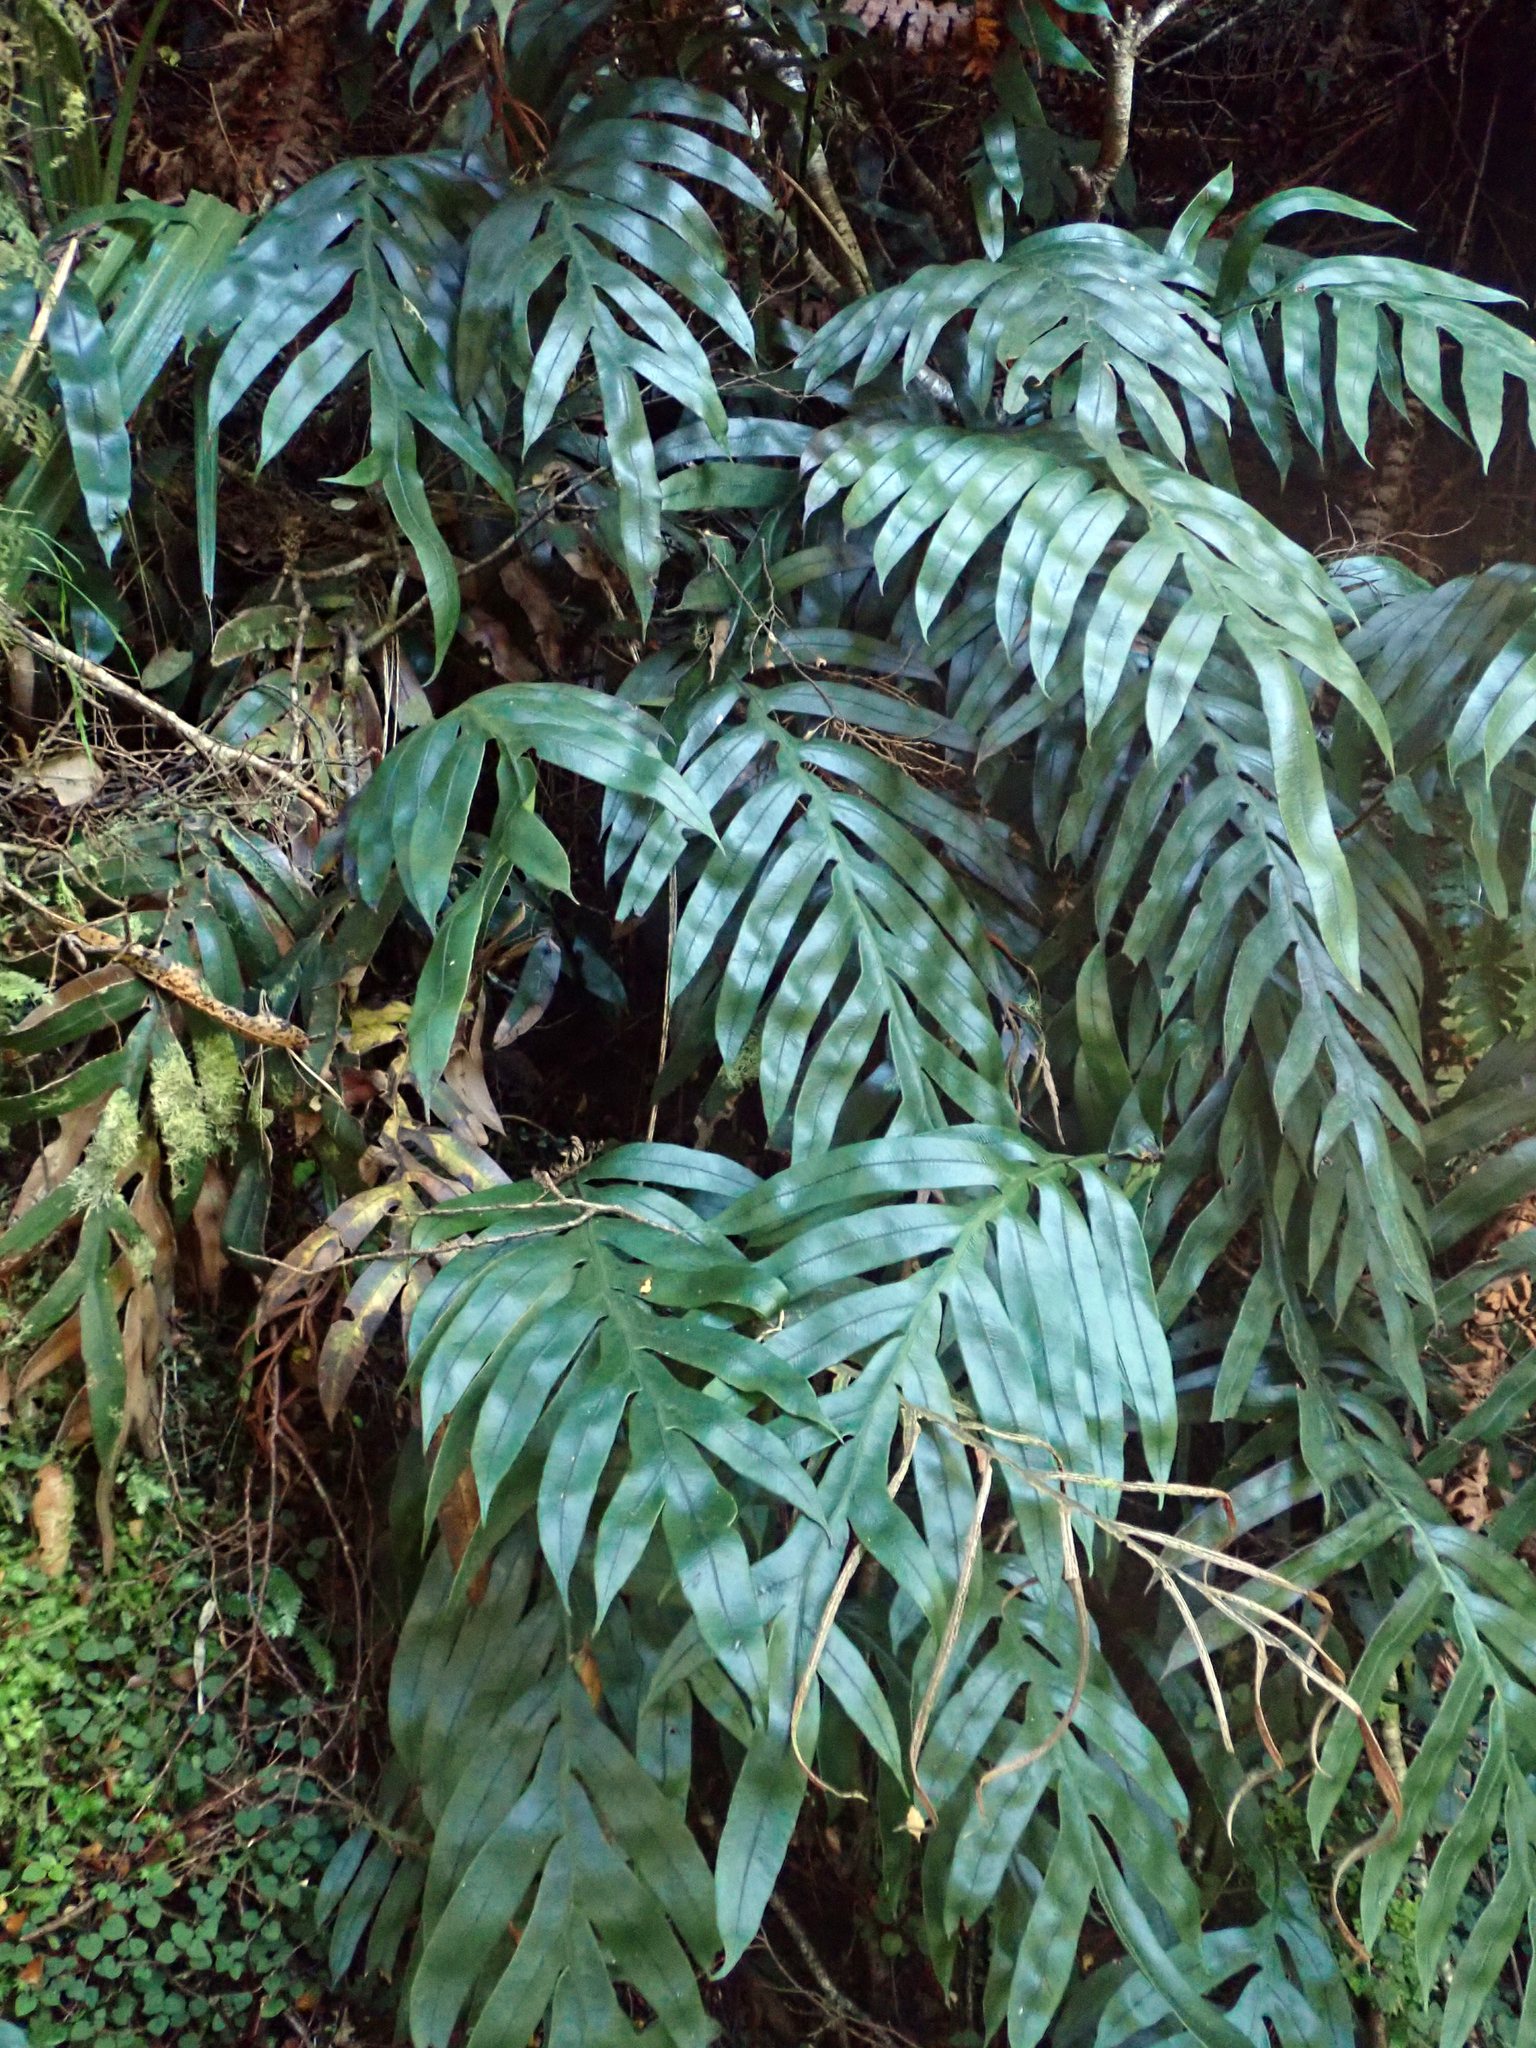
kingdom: Plantae
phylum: Tracheophyta
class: Polypodiopsida
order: Polypodiales
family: Blechnaceae
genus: Austroblechnum
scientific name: Austroblechnum colensoi
